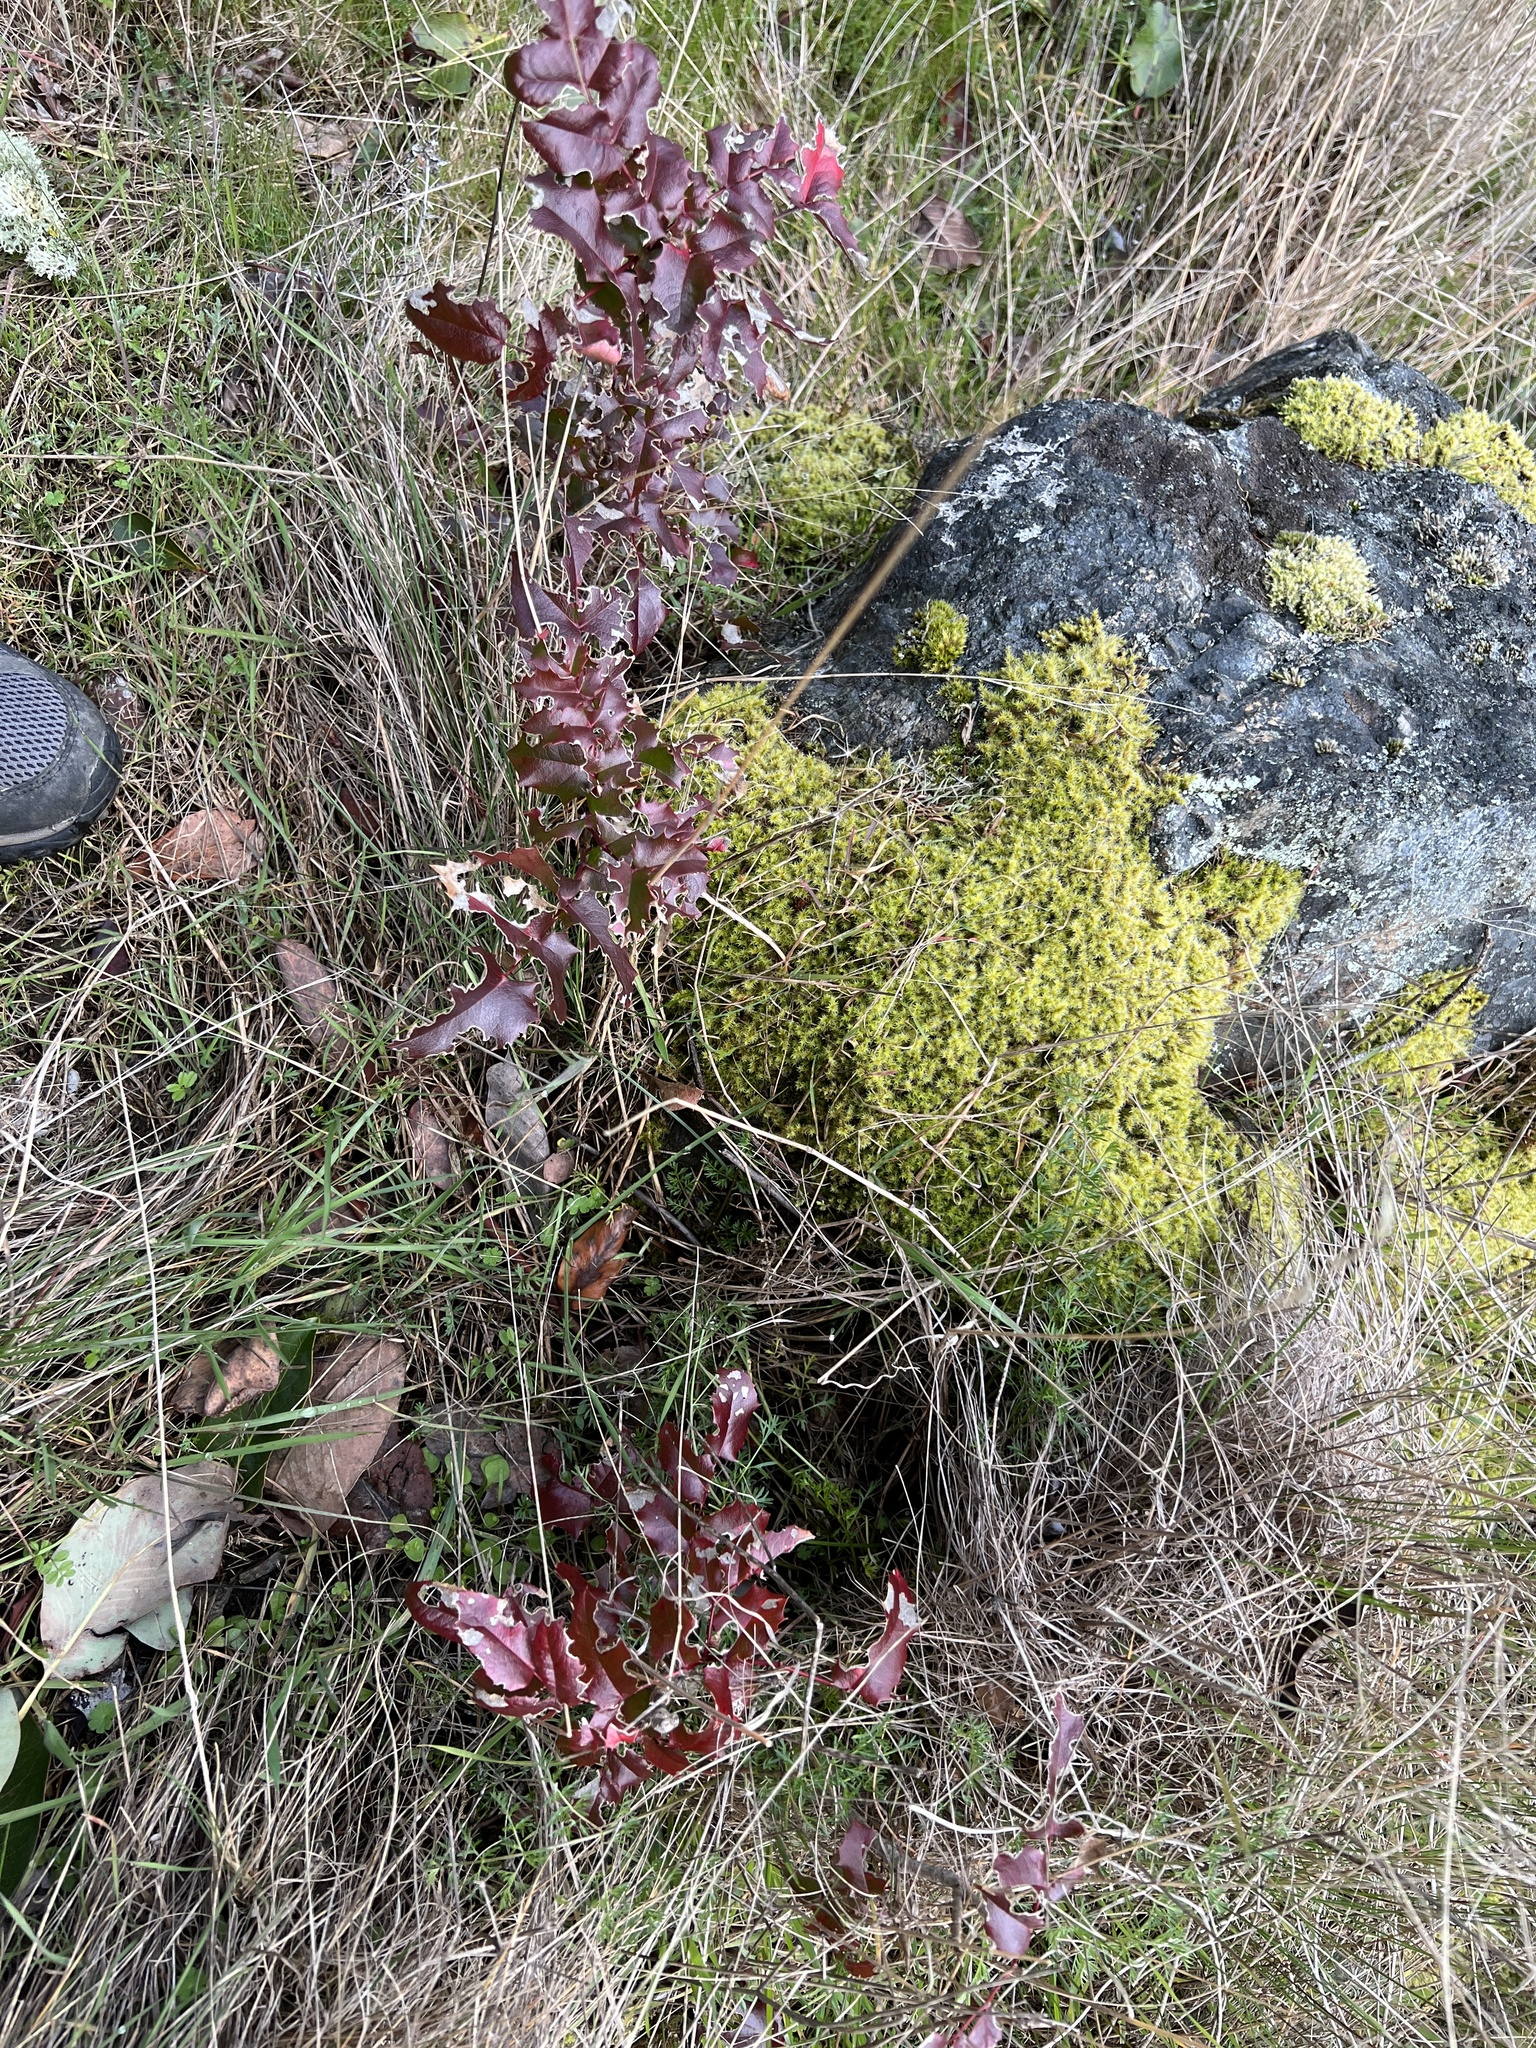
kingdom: Plantae
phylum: Tracheophyta
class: Magnoliopsida
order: Ranunculales
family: Berberidaceae
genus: Mahonia
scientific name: Mahonia aquifolium
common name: Oregon-grape
